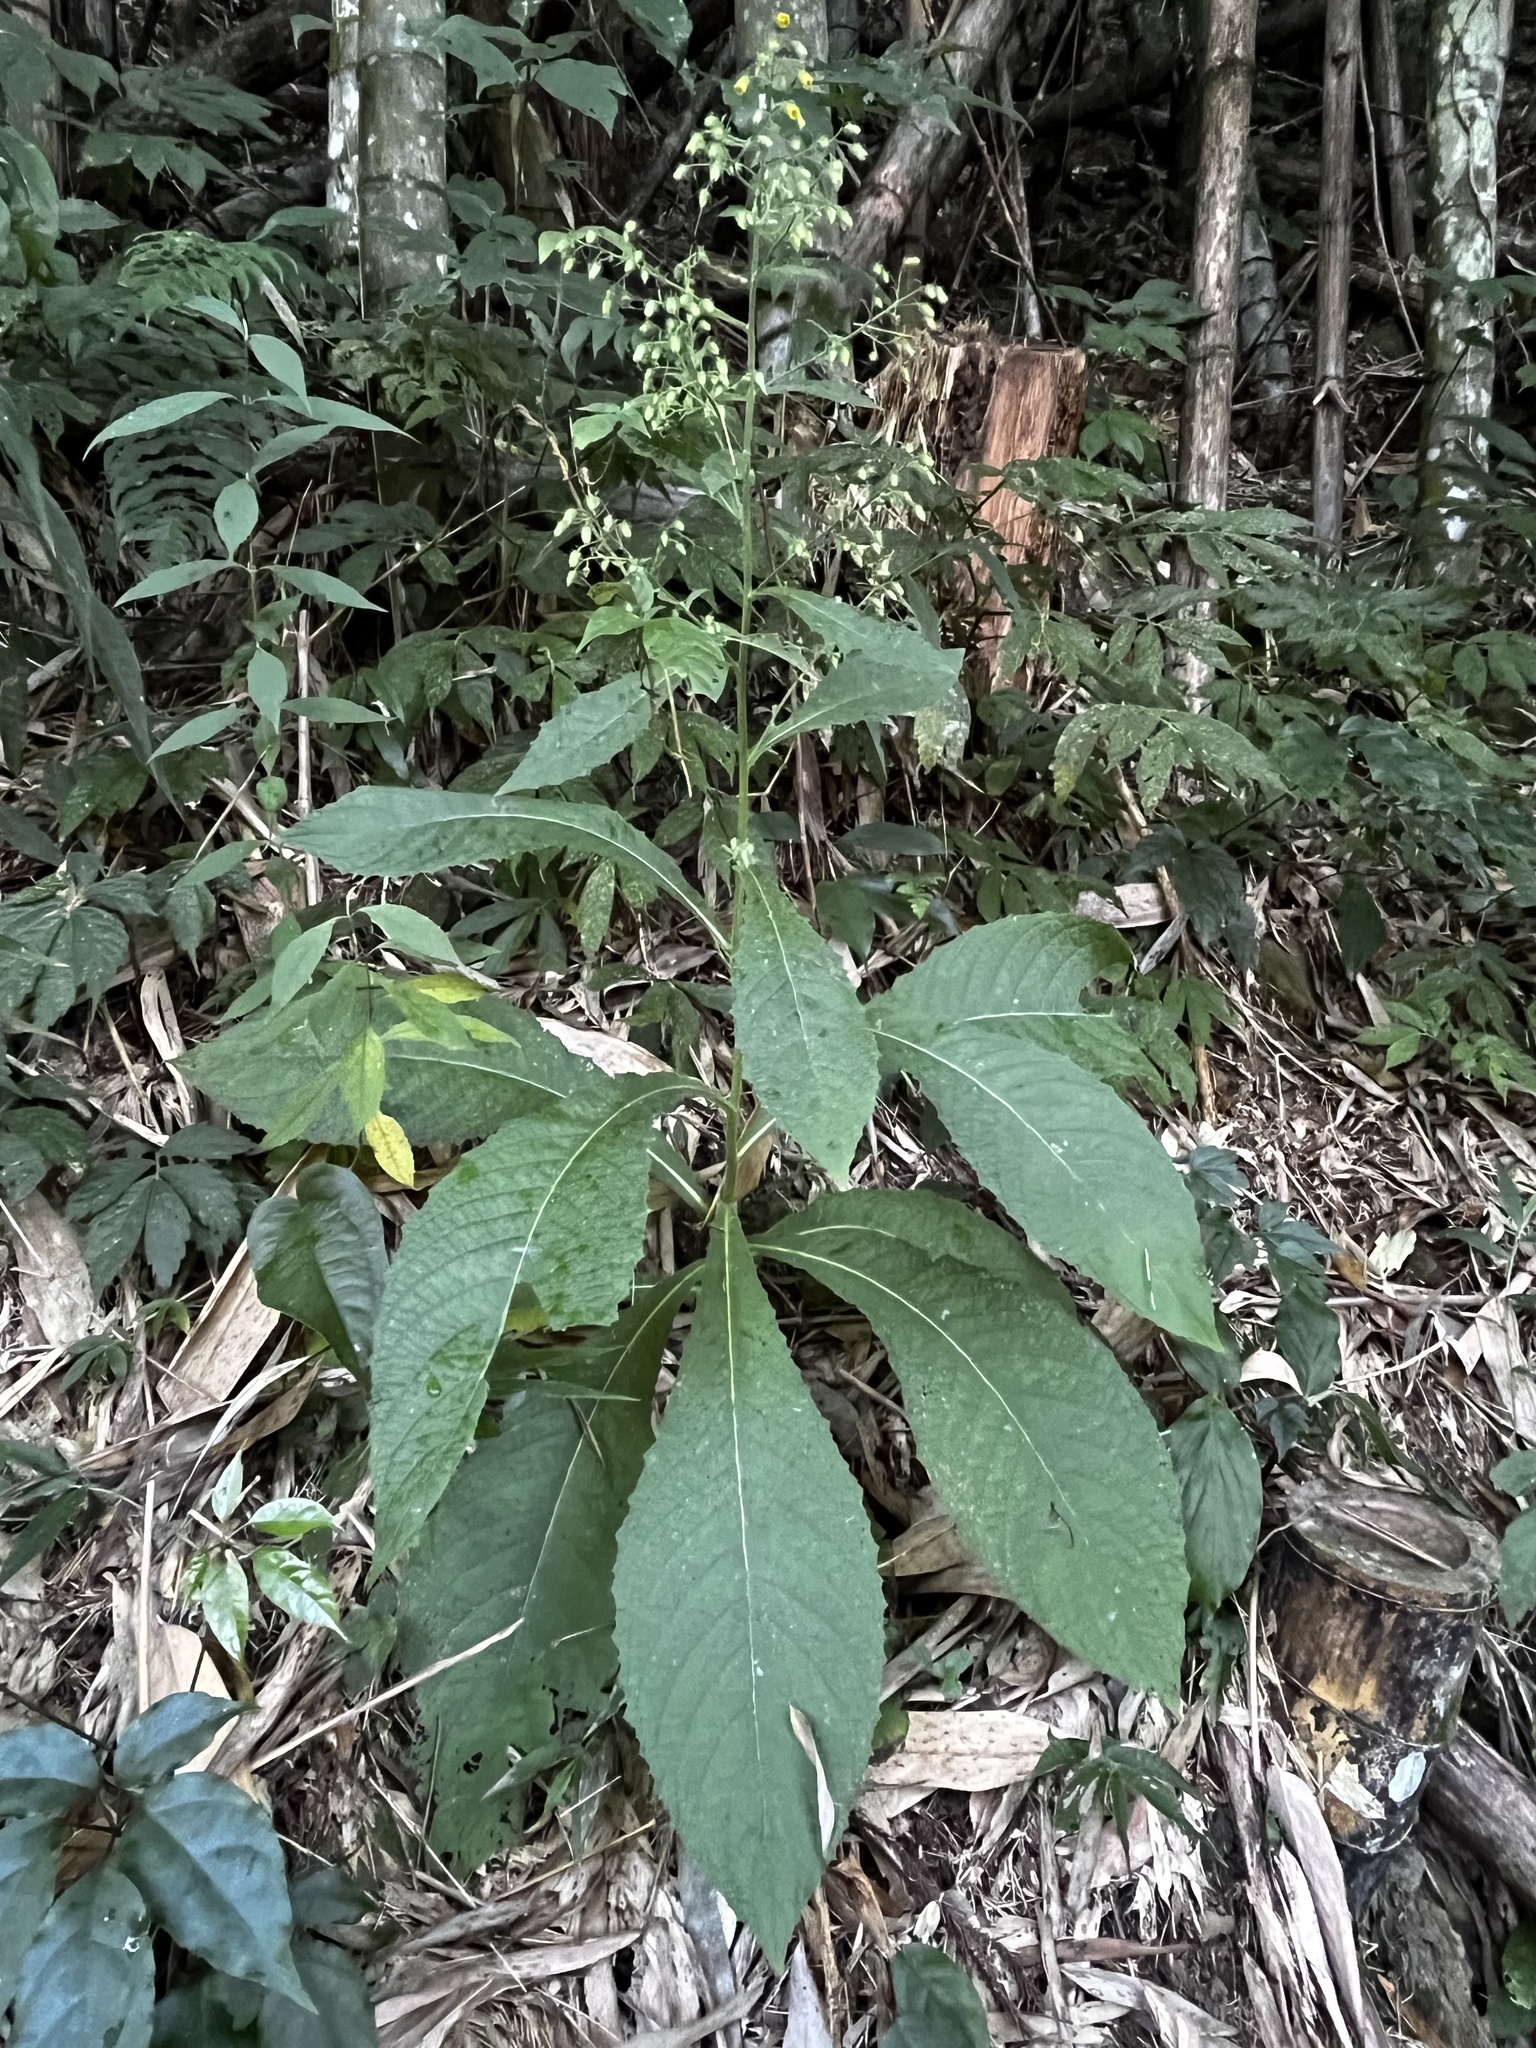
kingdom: Plantae
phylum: Tracheophyta
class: Magnoliopsida
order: Asterales
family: Asteraceae
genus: Blumea
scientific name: Blumea aromatica
